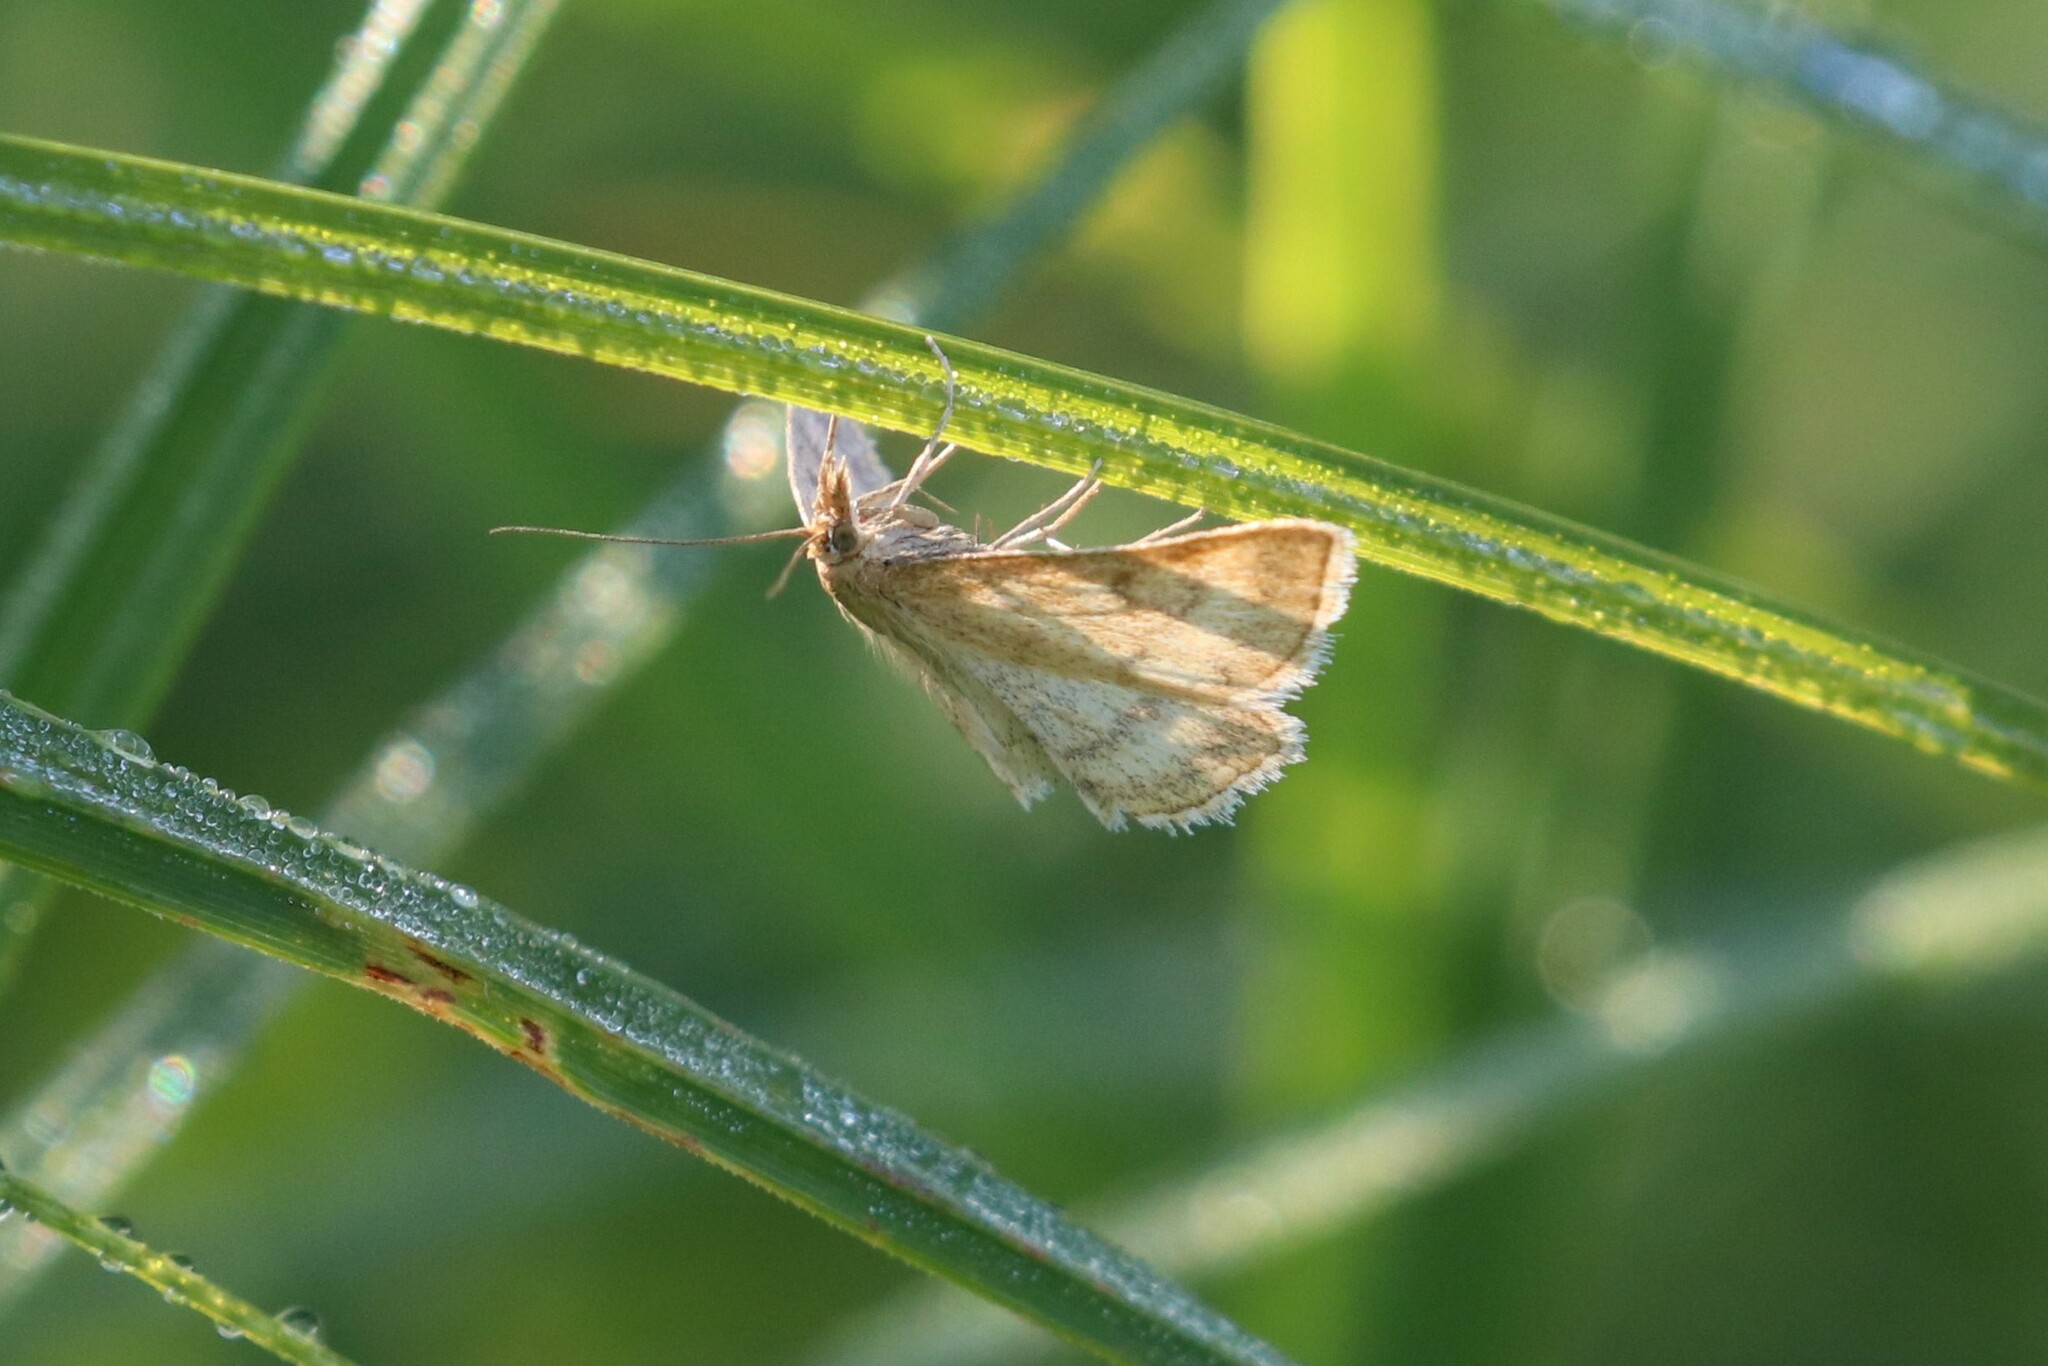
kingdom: Animalia
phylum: Arthropoda
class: Insecta
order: Lepidoptera
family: Crambidae
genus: Psammotis
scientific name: Psammotis viminalis
